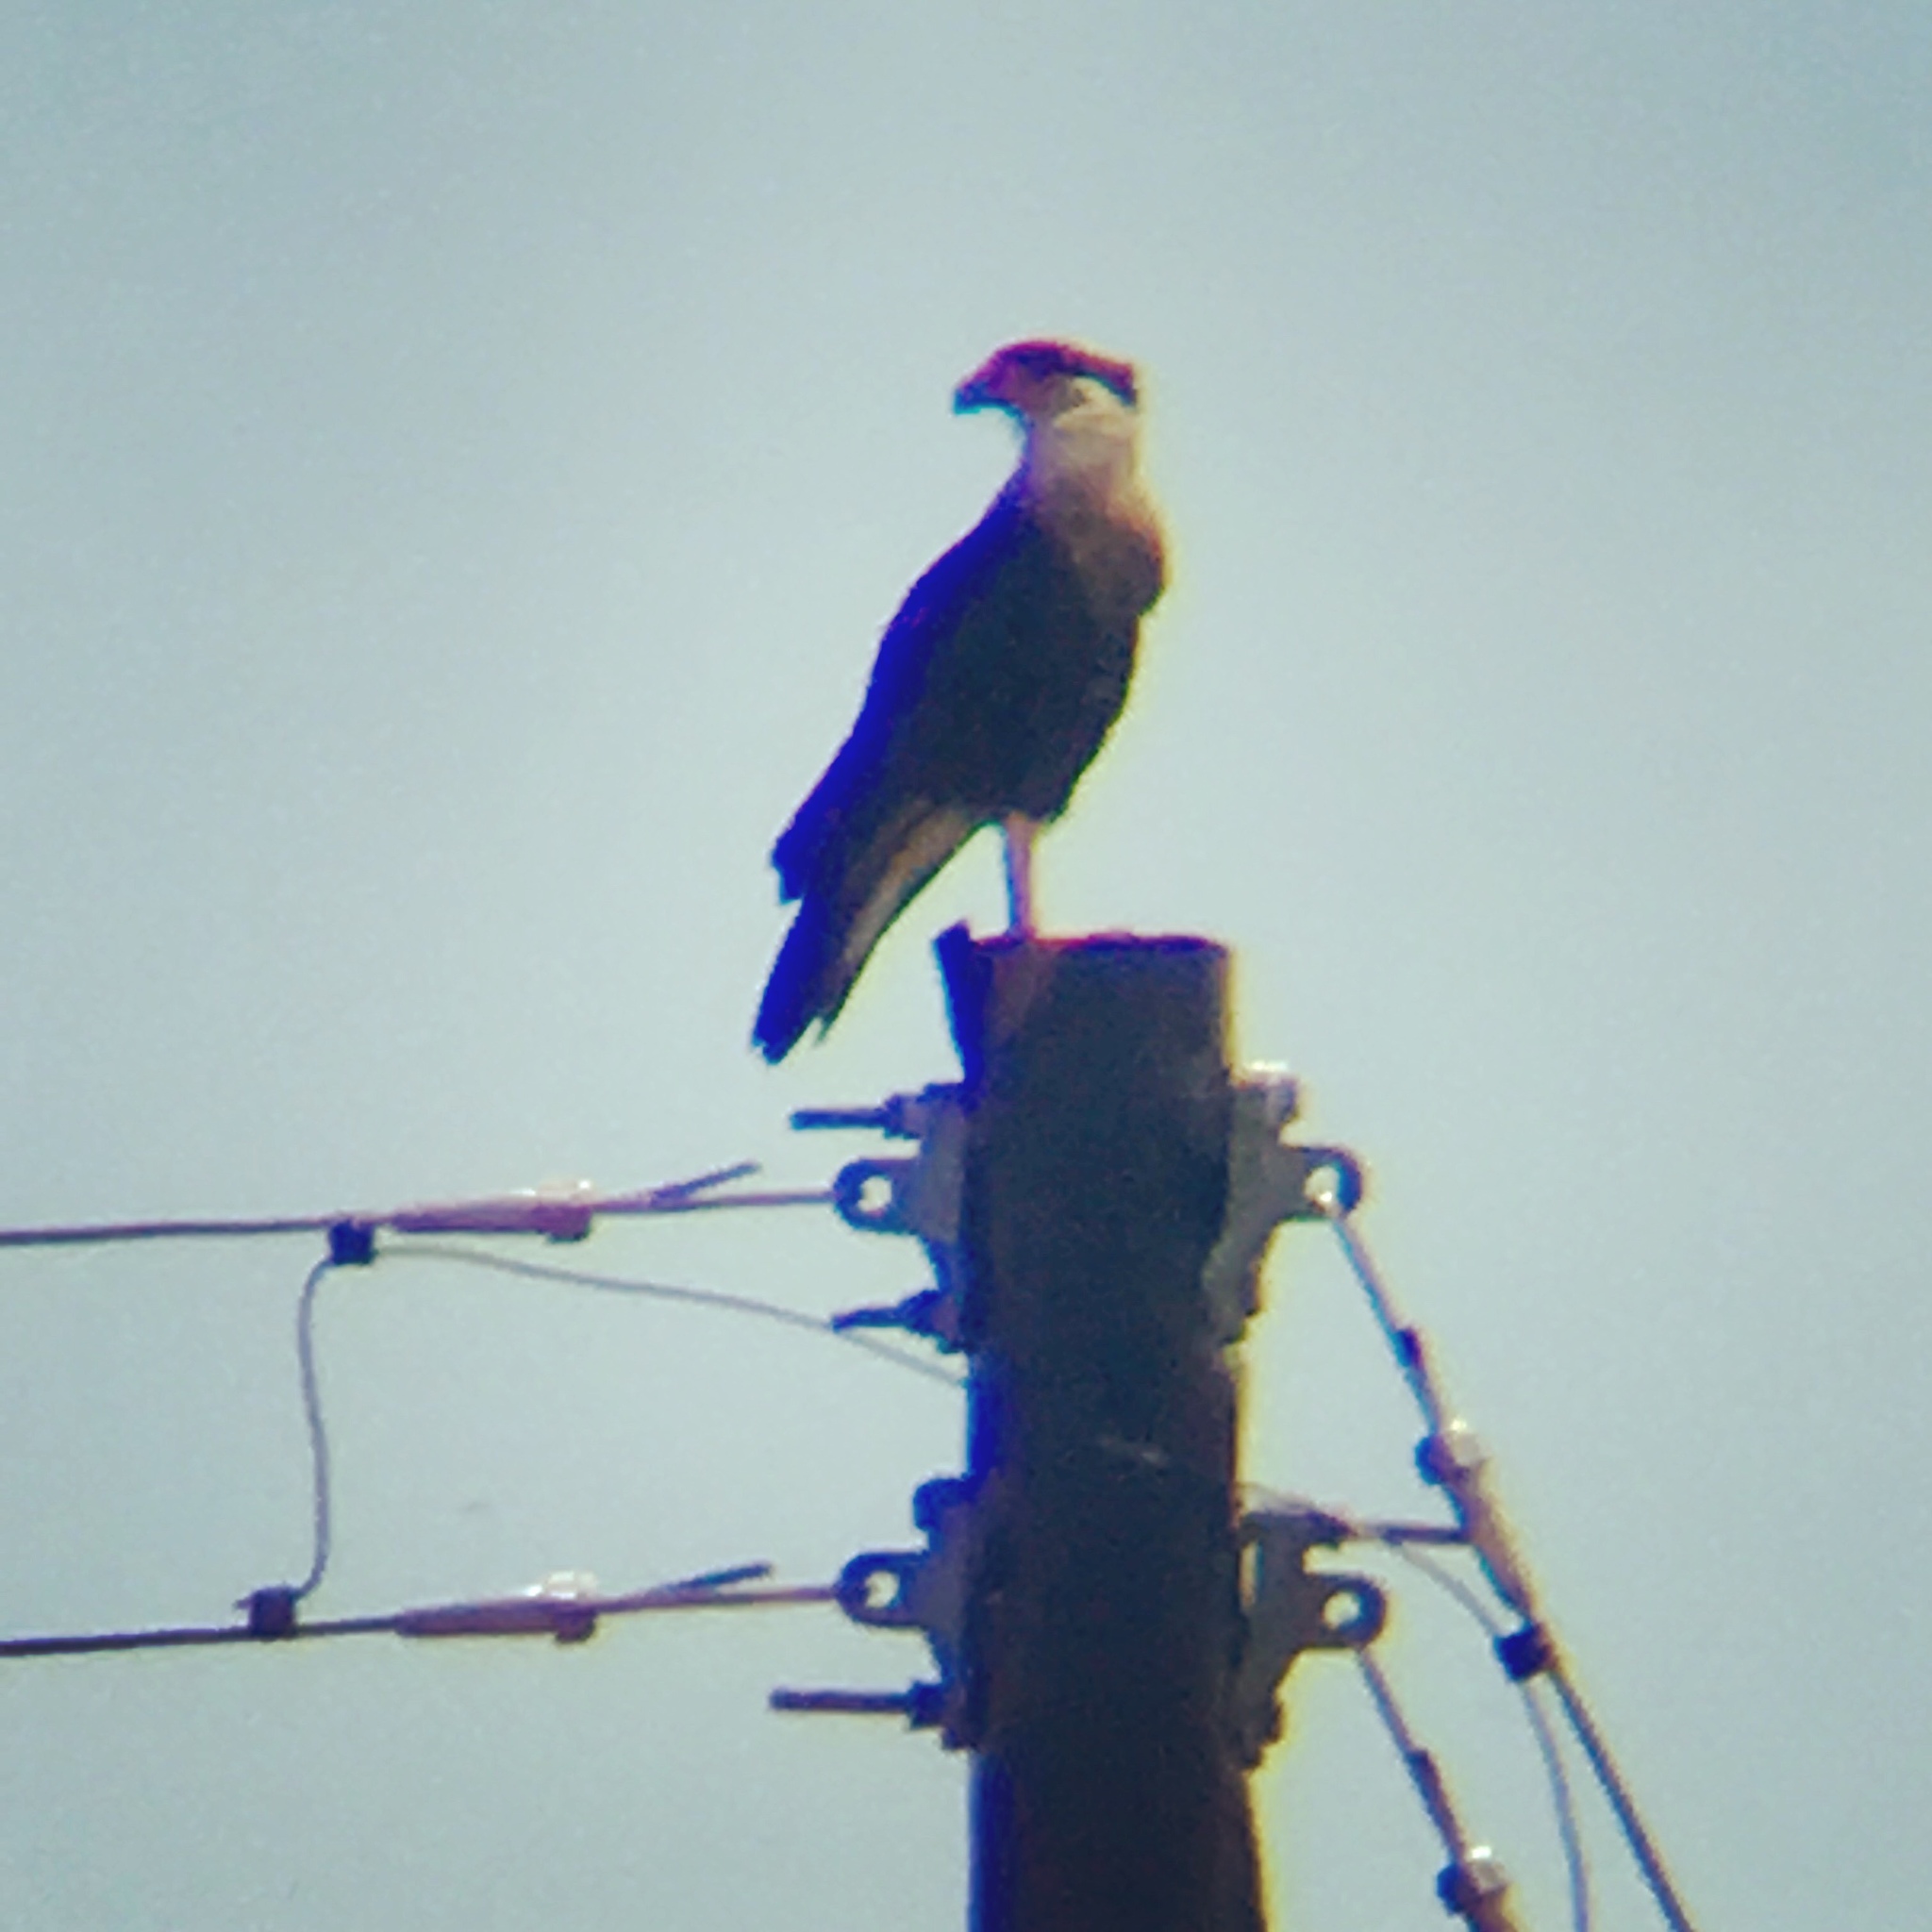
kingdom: Animalia
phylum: Chordata
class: Aves
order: Falconiformes
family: Falconidae
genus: Caracara
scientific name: Caracara plancus
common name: Southern caracara
